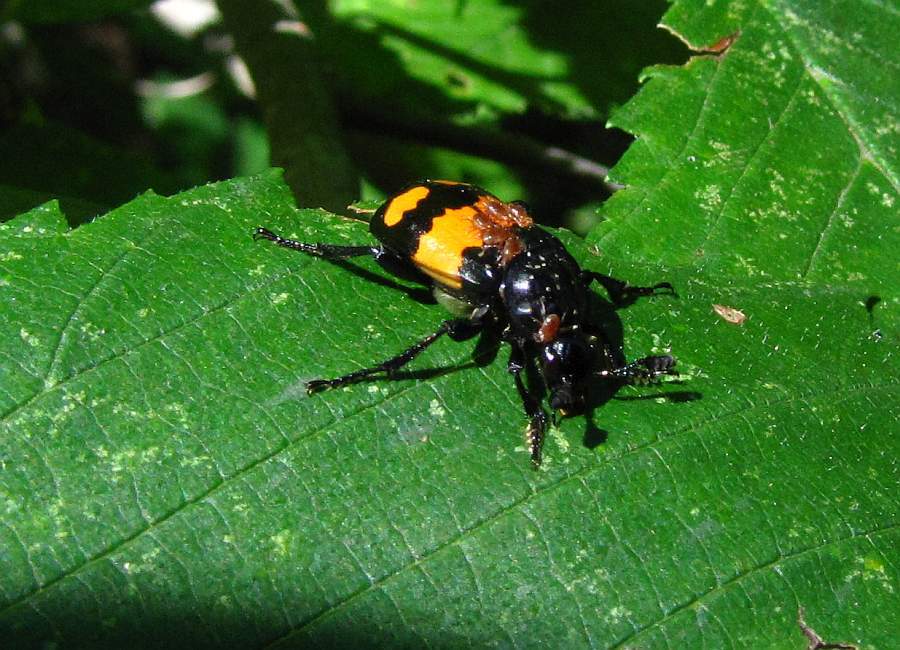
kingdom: Animalia
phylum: Arthropoda
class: Insecta
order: Coleoptera
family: Staphylinidae
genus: Nicrophorus
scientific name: Nicrophorus defodiens
